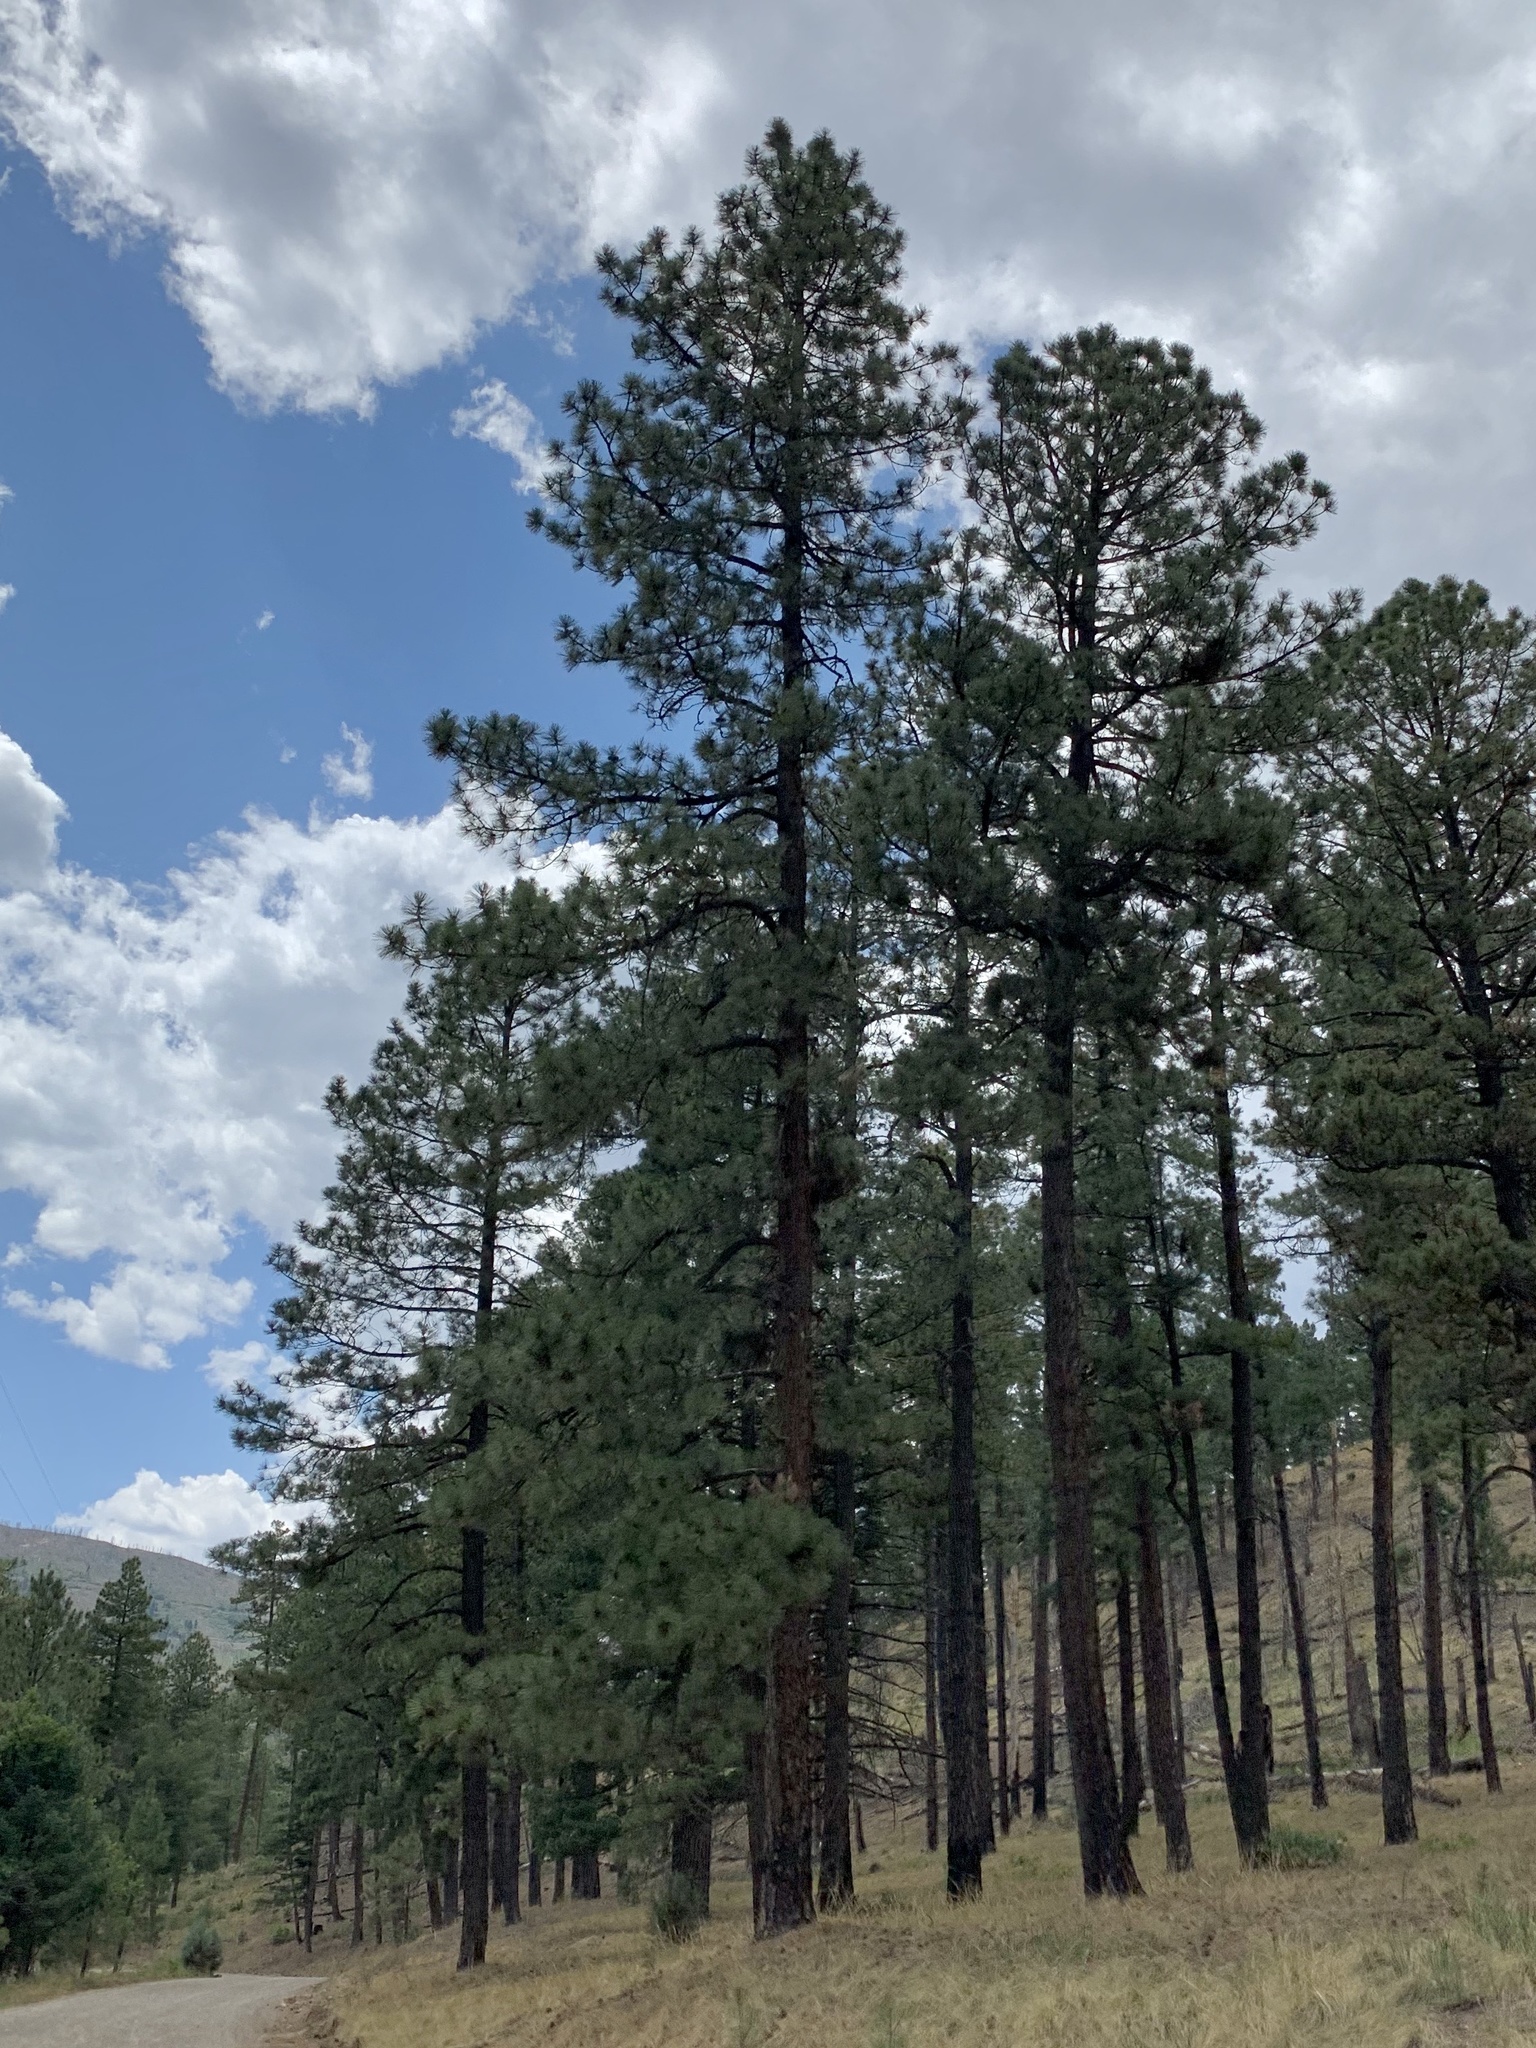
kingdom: Plantae
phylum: Tracheophyta
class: Pinopsida
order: Pinales
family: Pinaceae
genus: Pinus
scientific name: Pinus ponderosa
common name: Western yellow-pine
